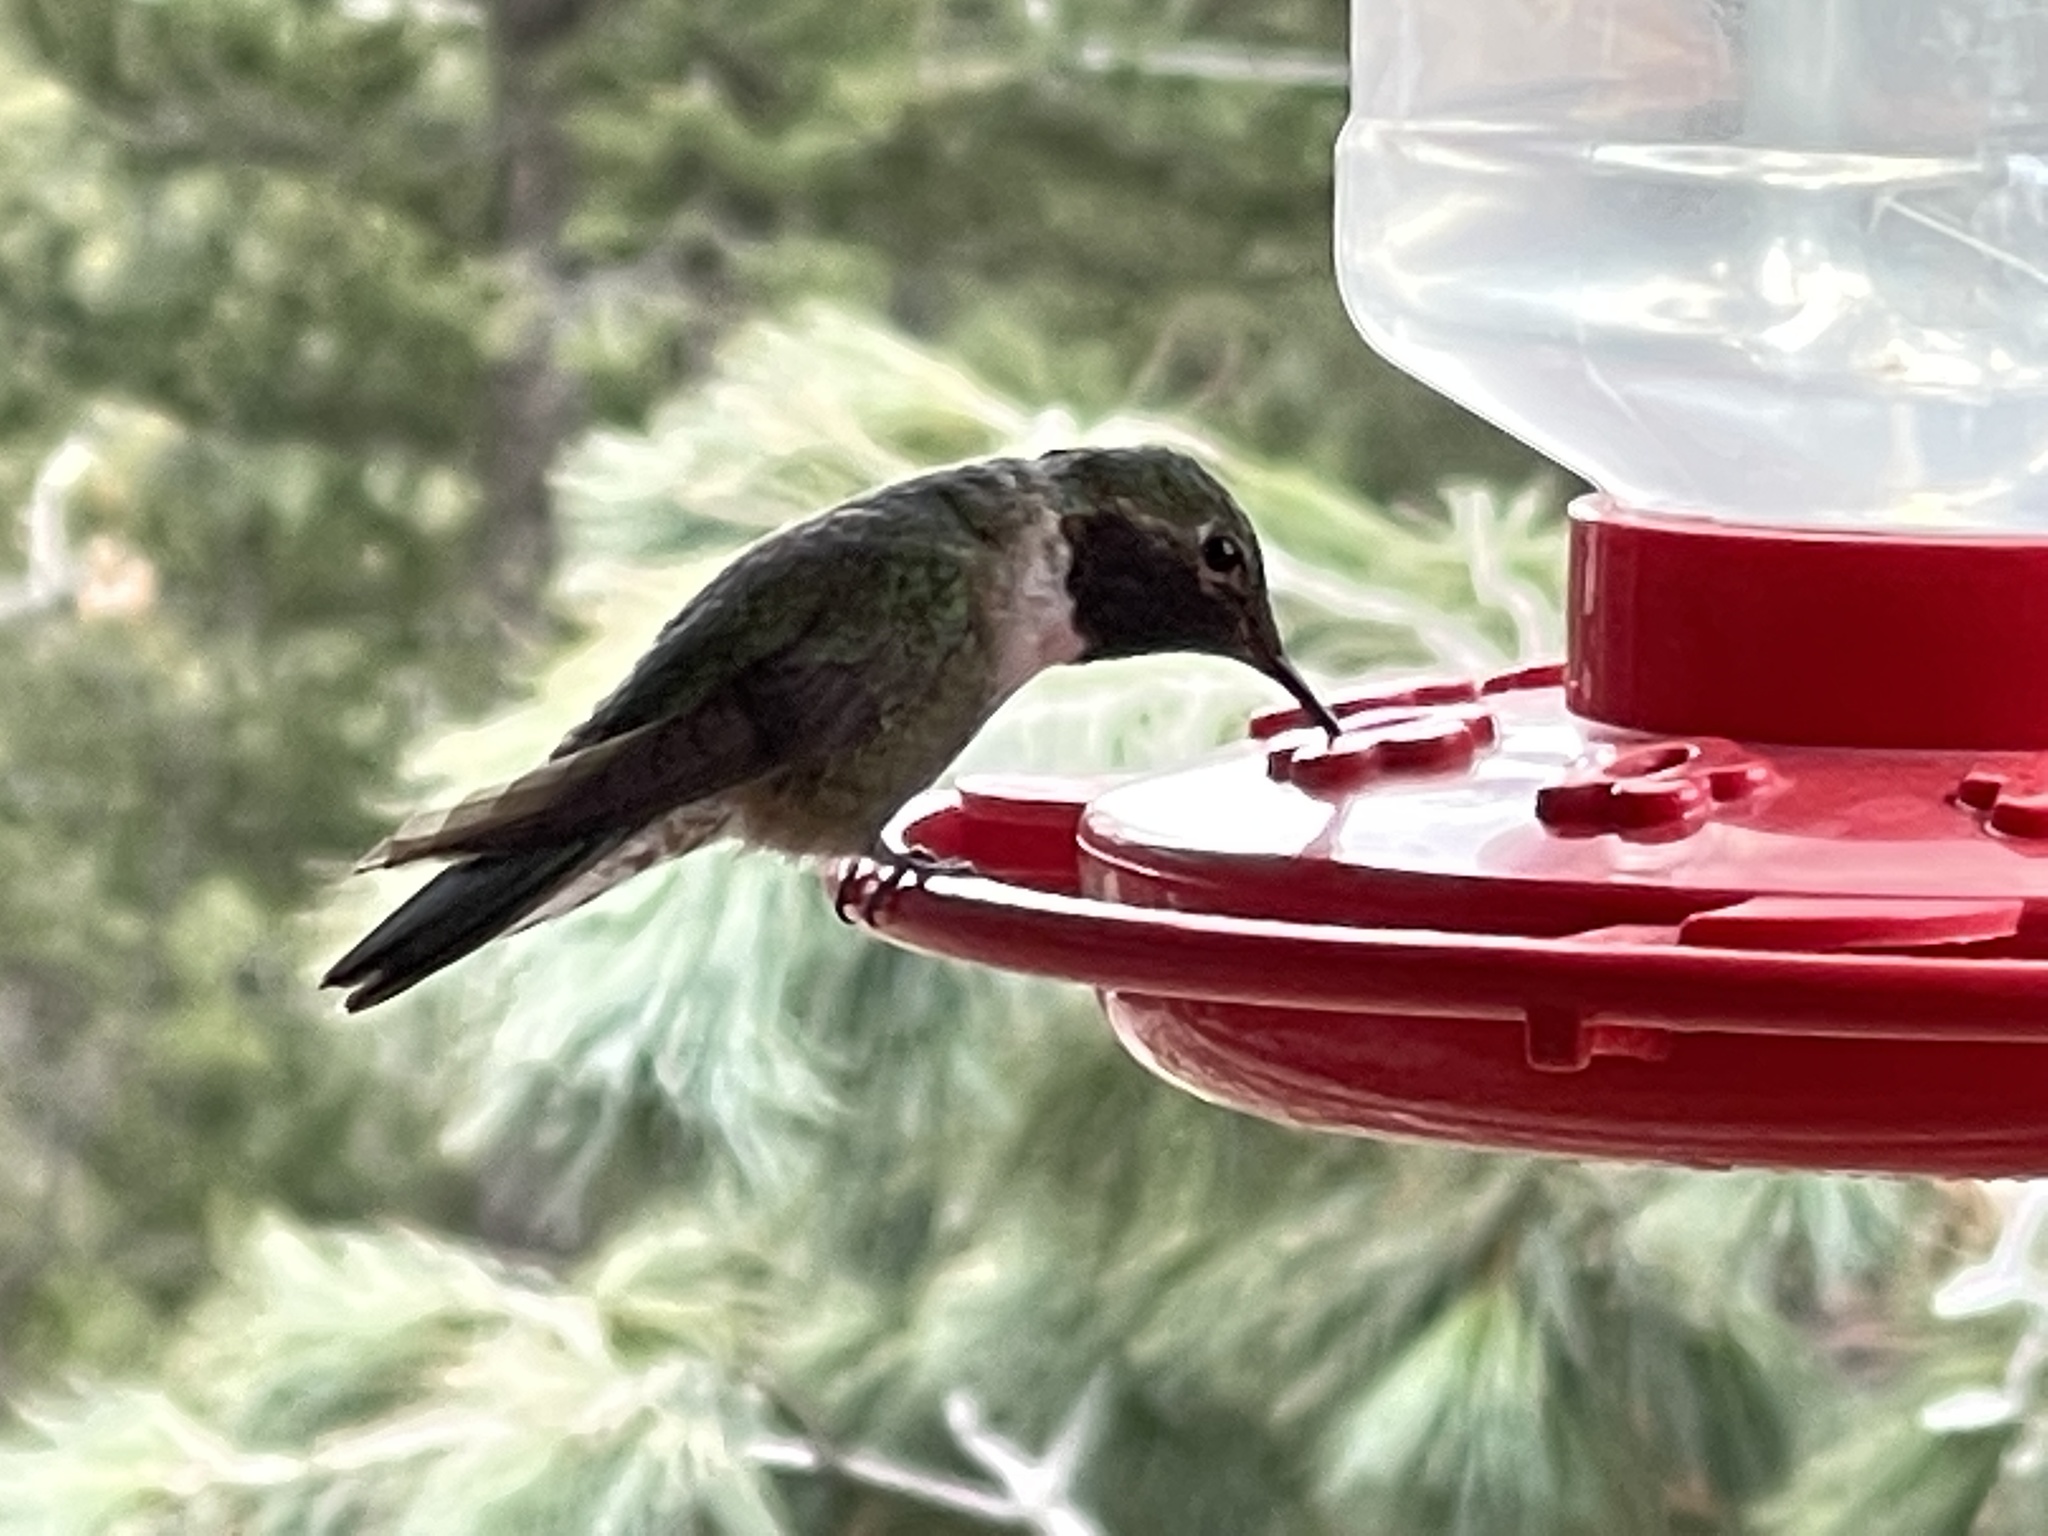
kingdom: Animalia
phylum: Chordata
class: Aves
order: Apodiformes
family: Trochilidae
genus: Selasphorus
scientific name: Selasphorus platycercus
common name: Broad-tailed hummingbird
